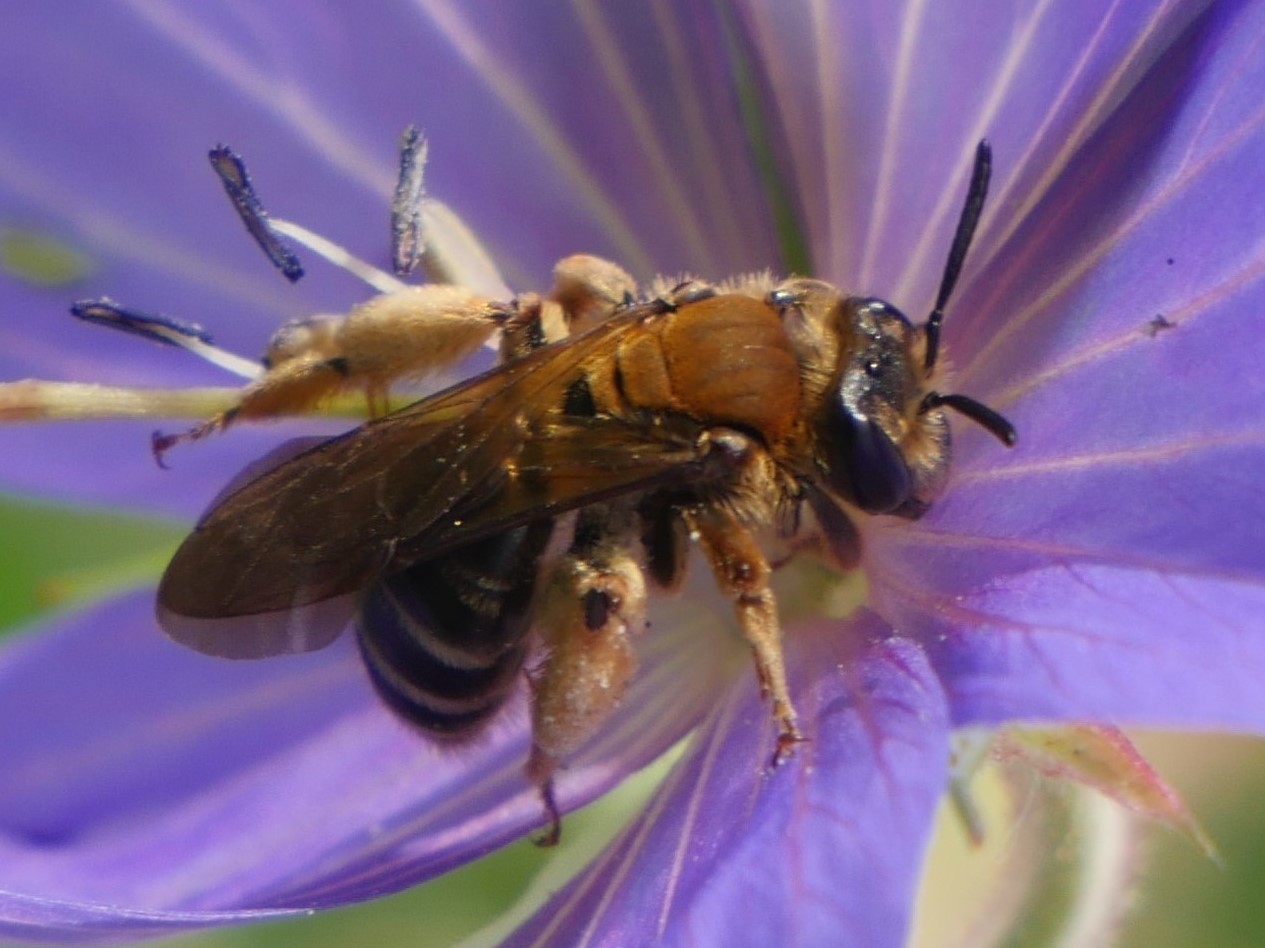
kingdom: Animalia
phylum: Arthropoda
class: Insecta
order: Hymenoptera
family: Andrenidae
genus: Andrena
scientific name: Andrena curvungula
